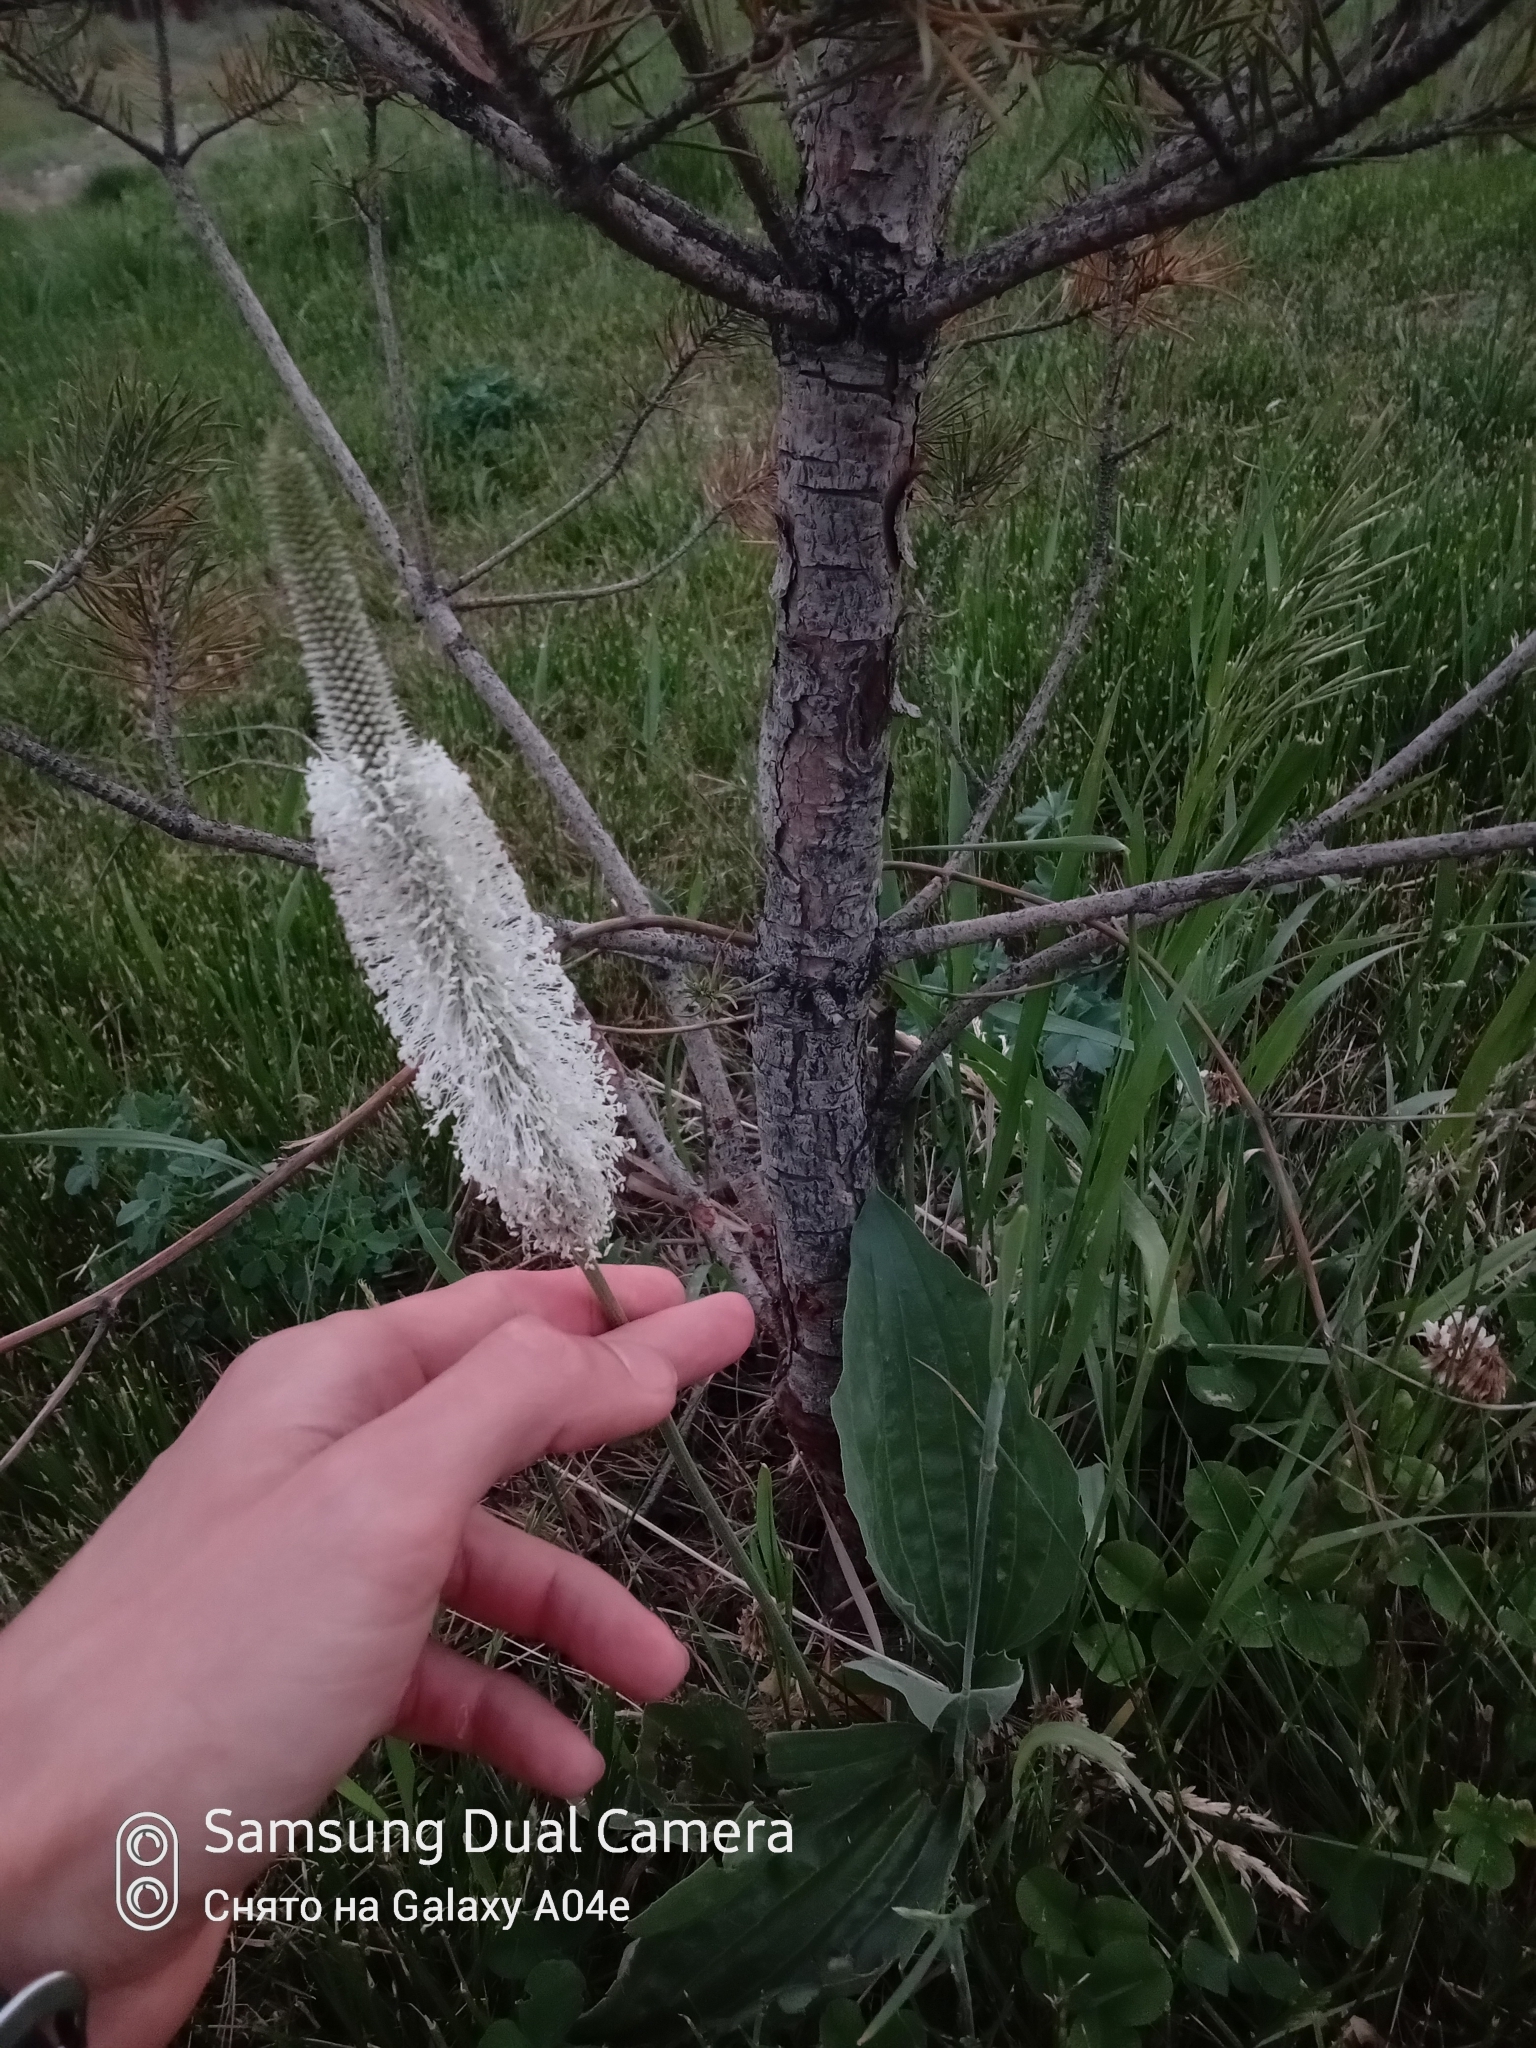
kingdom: Plantae
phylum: Tracheophyta
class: Magnoliopsida
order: Lamiales
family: Plantaginaceae
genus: Plantago
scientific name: Plantago media
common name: Hoary plantain
